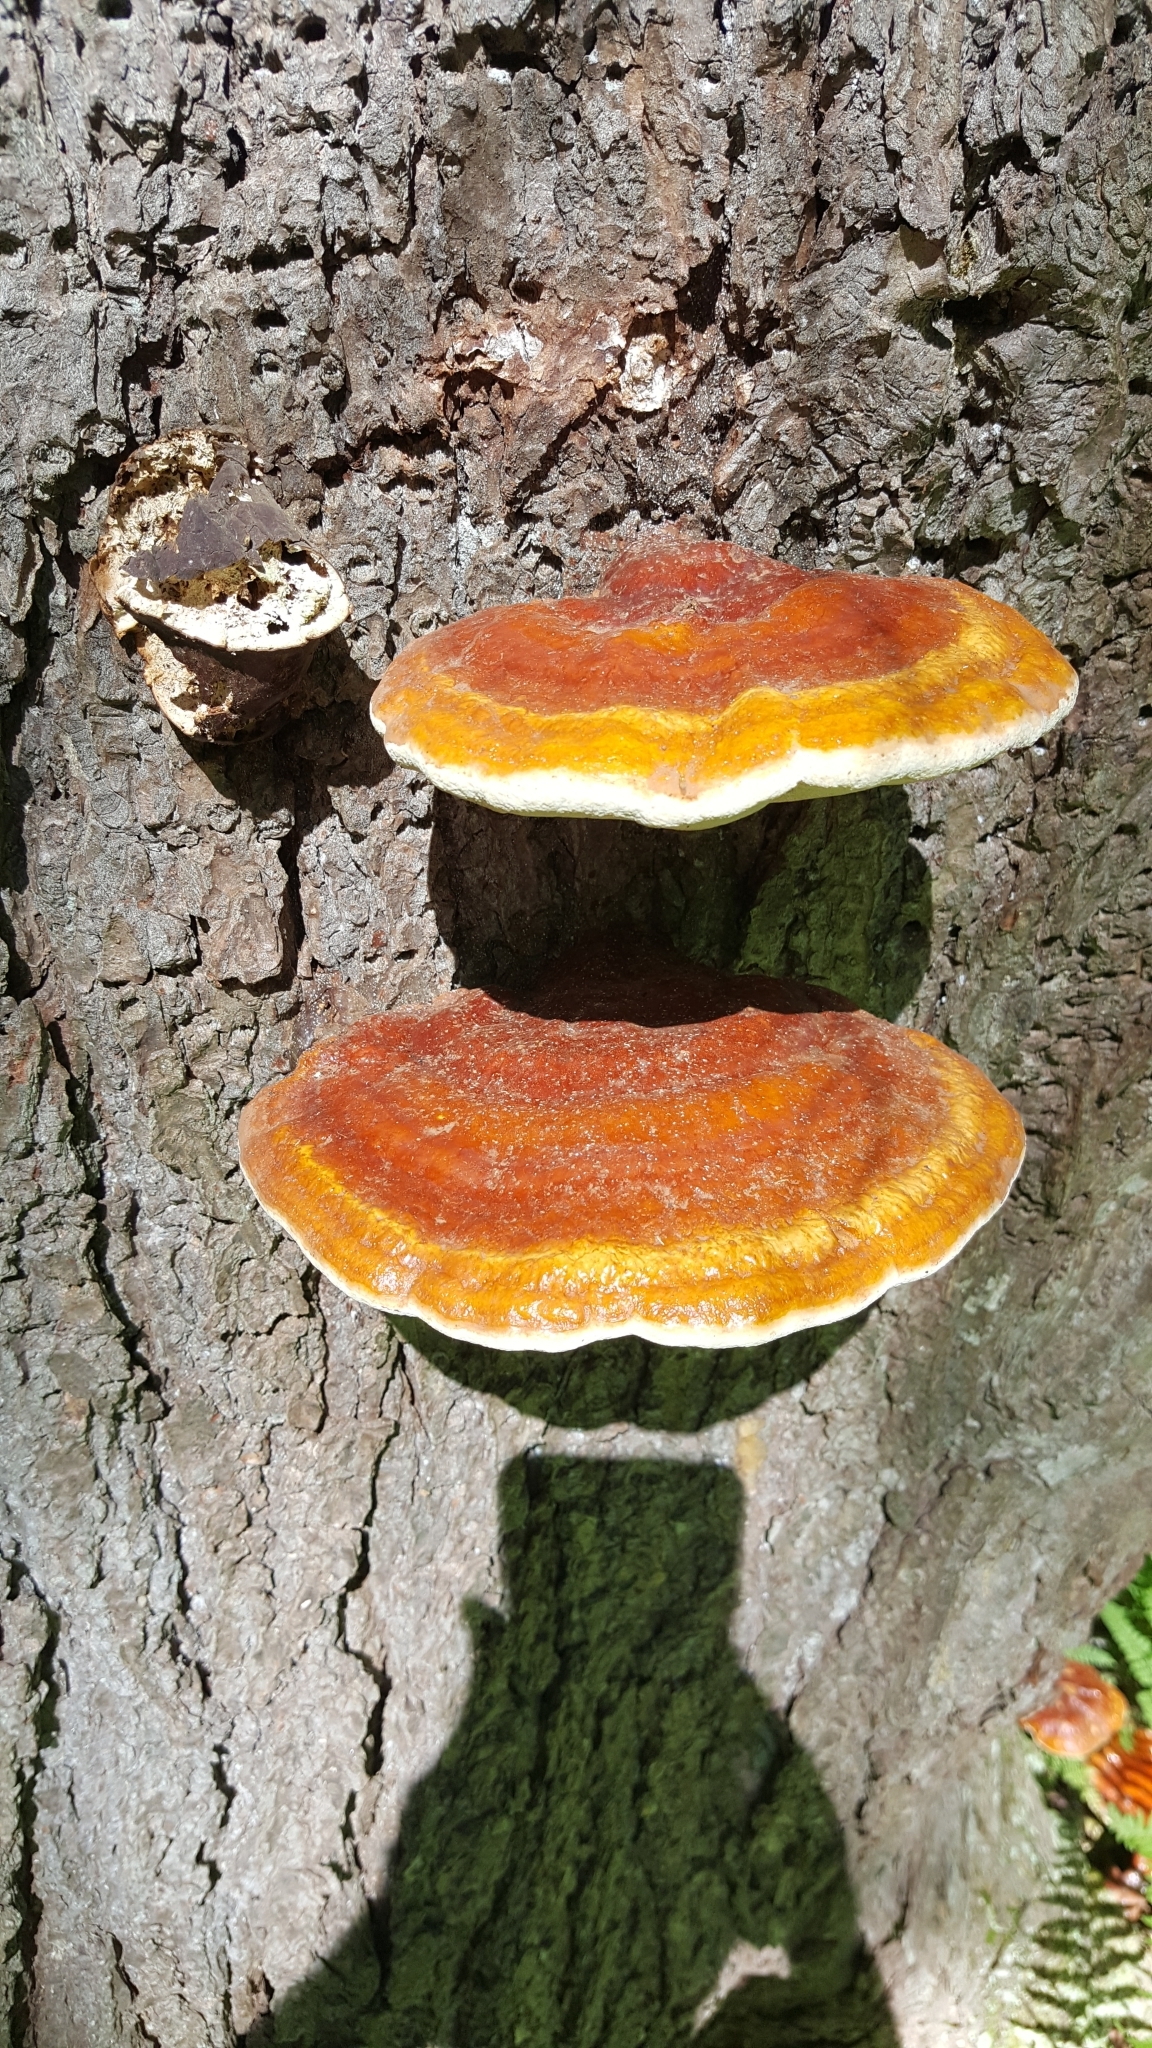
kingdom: Fungi
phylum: Basidiomycota
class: Agaricomycetes
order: Polyporales
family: Polyporaceae
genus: Ganoderma
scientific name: Ganoderma tsugae
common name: Hemlock varnish shelf
